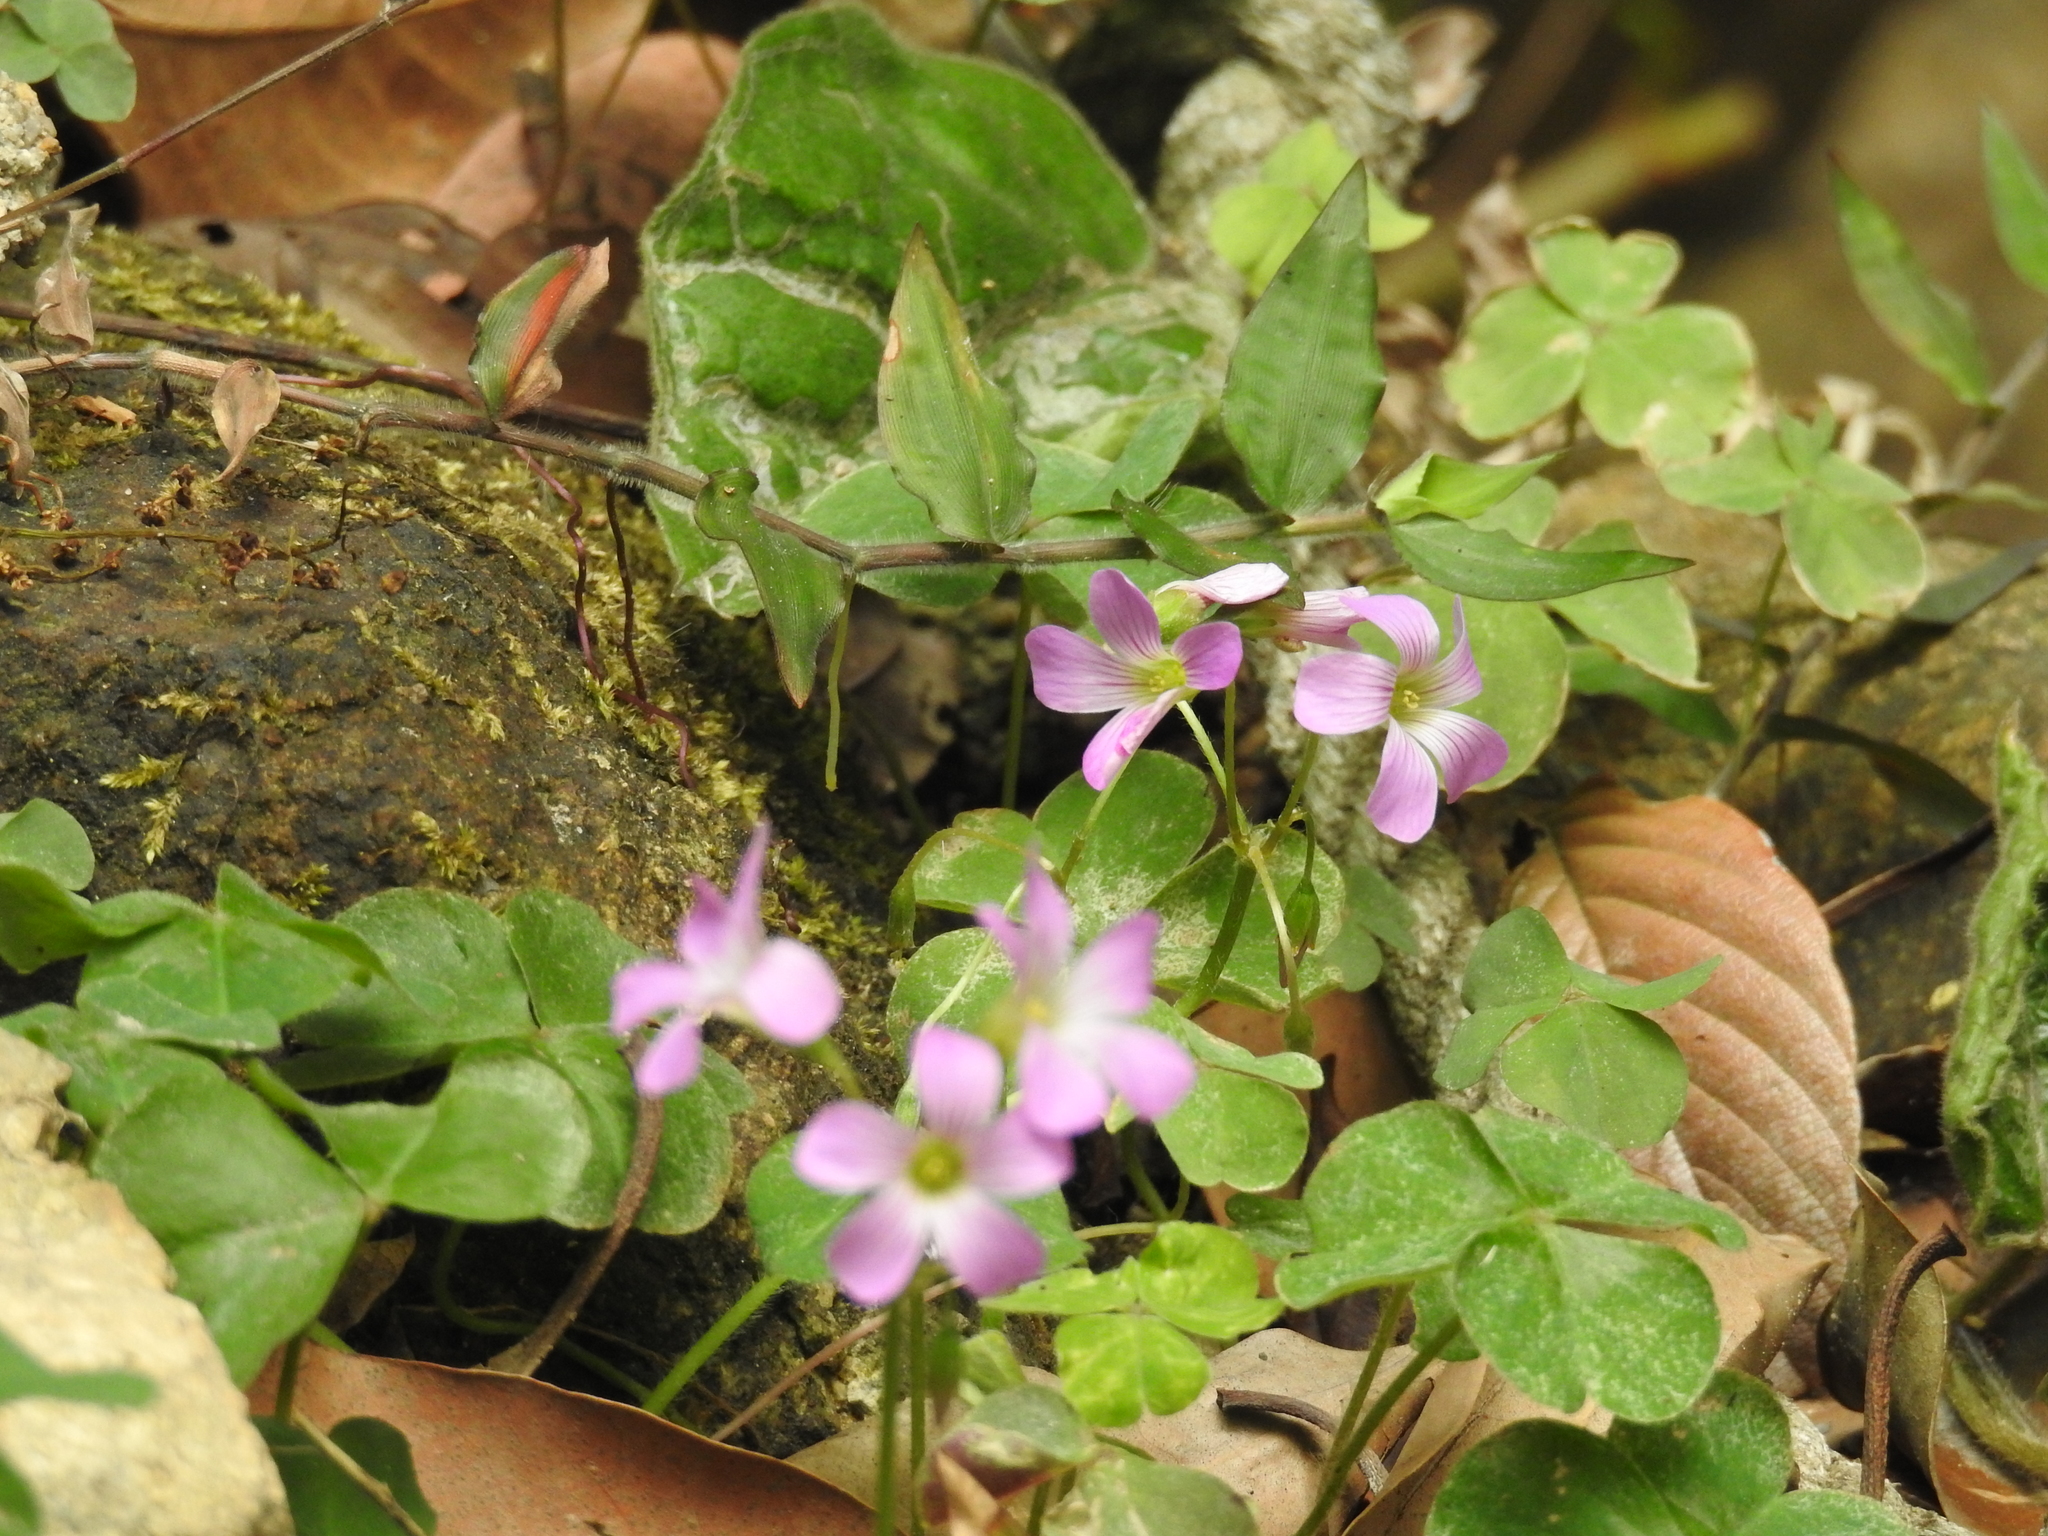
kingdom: Plantae
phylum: Tracheophyta
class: Magnoliopsida
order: Oxalidales
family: Oxalidaceae
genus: Oxalis
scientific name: Oxalis debilis
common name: Large-flowered pink-sorrel
